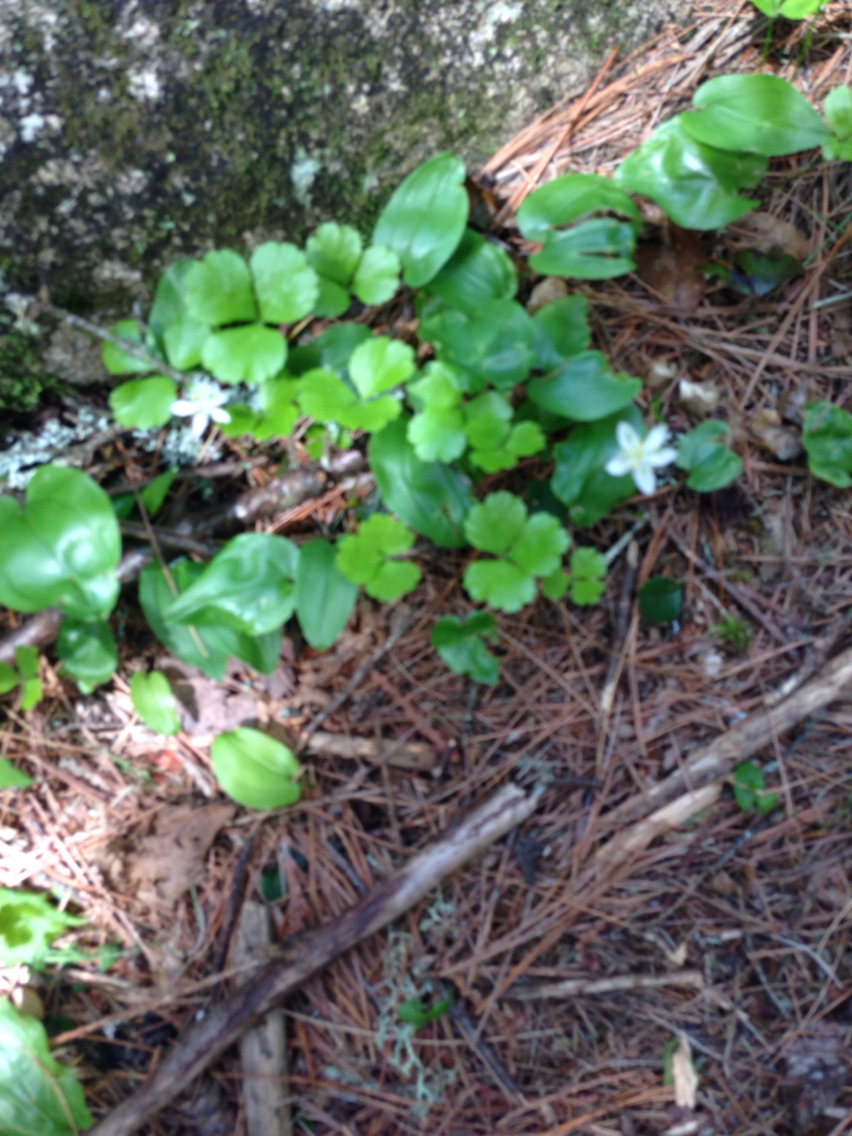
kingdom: Plantae
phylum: Tracheophyta
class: Magnoliopsida
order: Ranunculales
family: Ranunculaceae
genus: Coptis
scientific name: Coptis trifolia
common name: Canker-root
